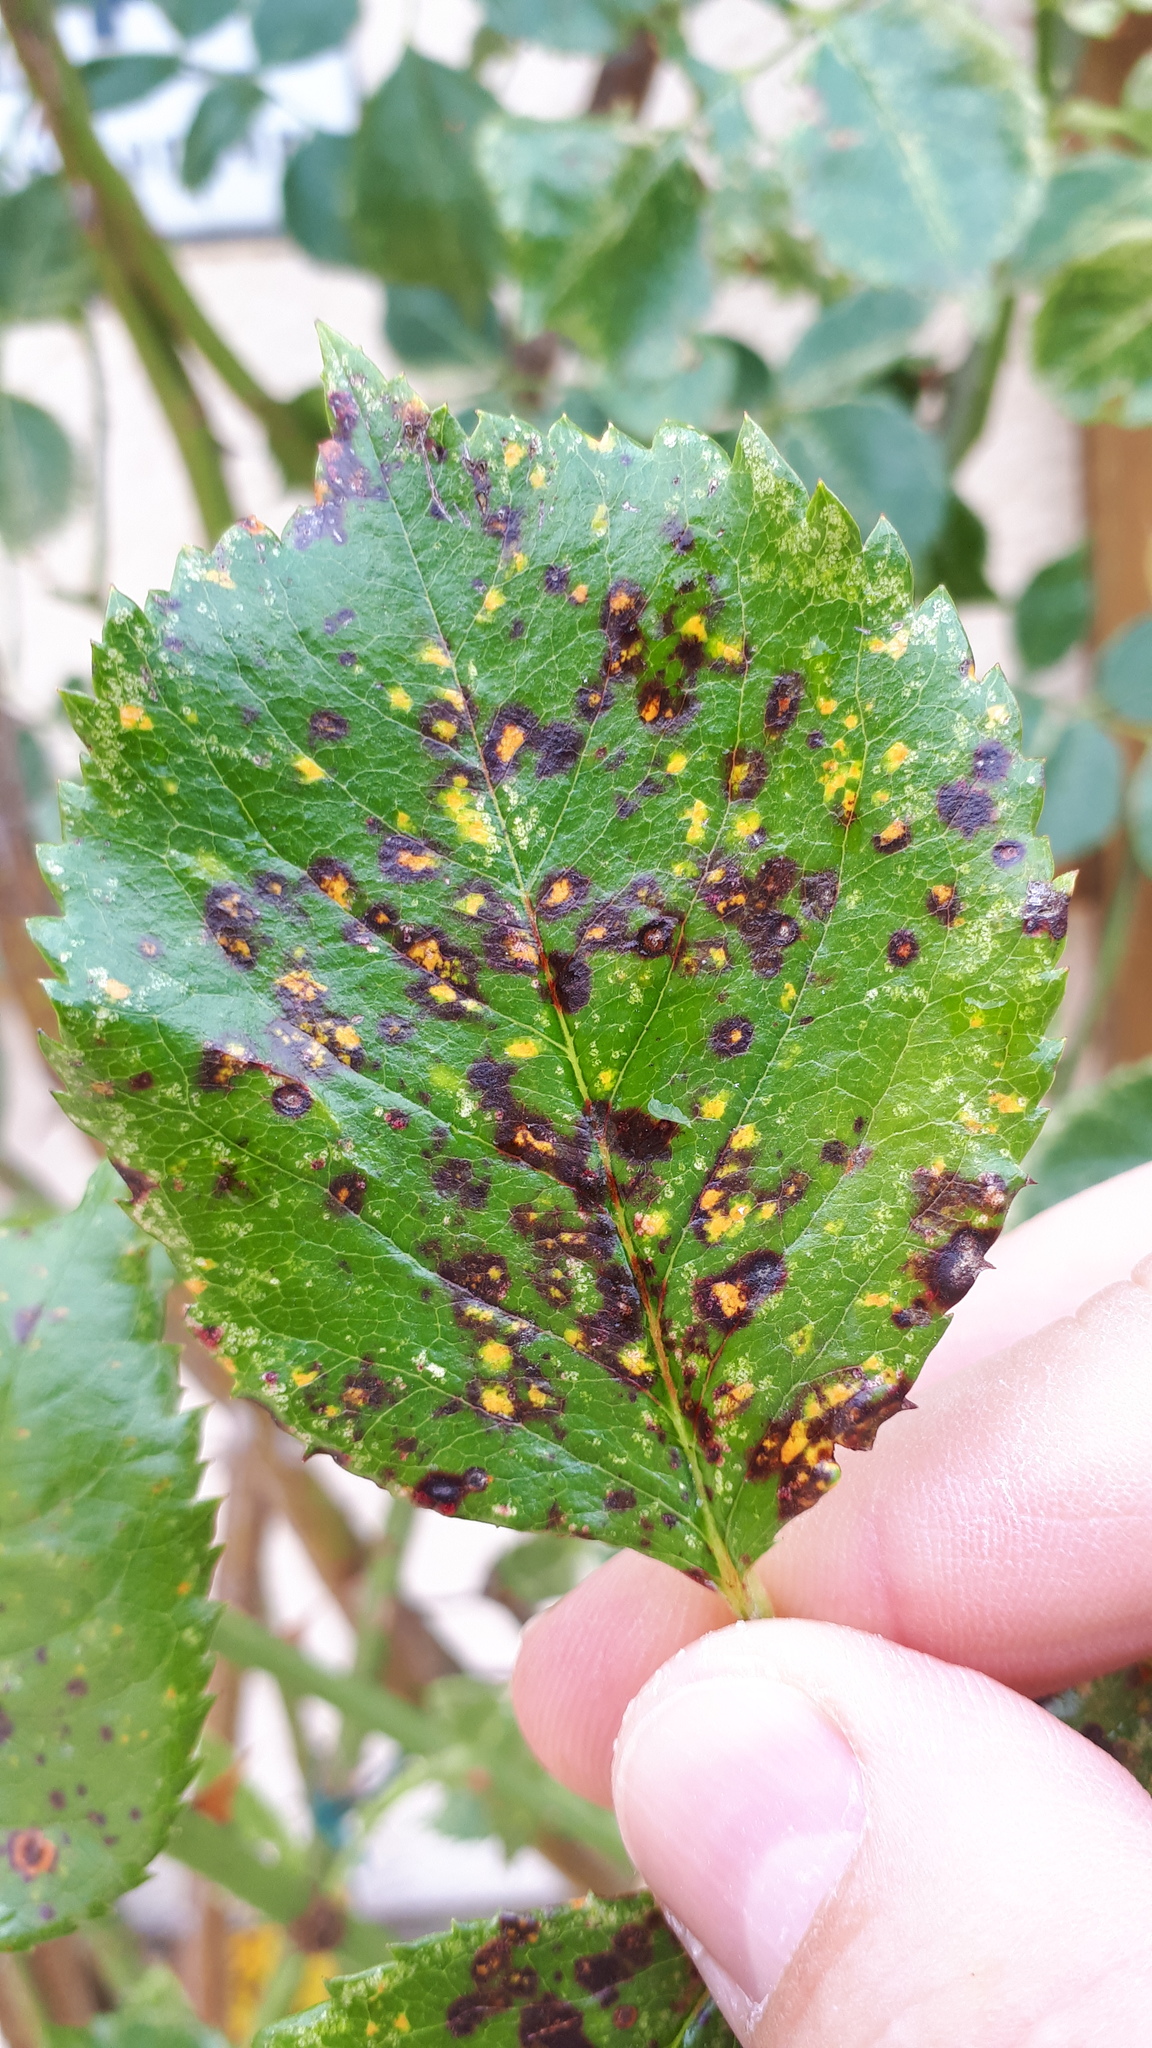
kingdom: Fungi
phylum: Basidiomycota
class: Pucciniomycetes
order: Pucciniales
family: Phragmidiaceae
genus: Phragmidium
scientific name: Phragmidium violaceum
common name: Violet bramble rust
